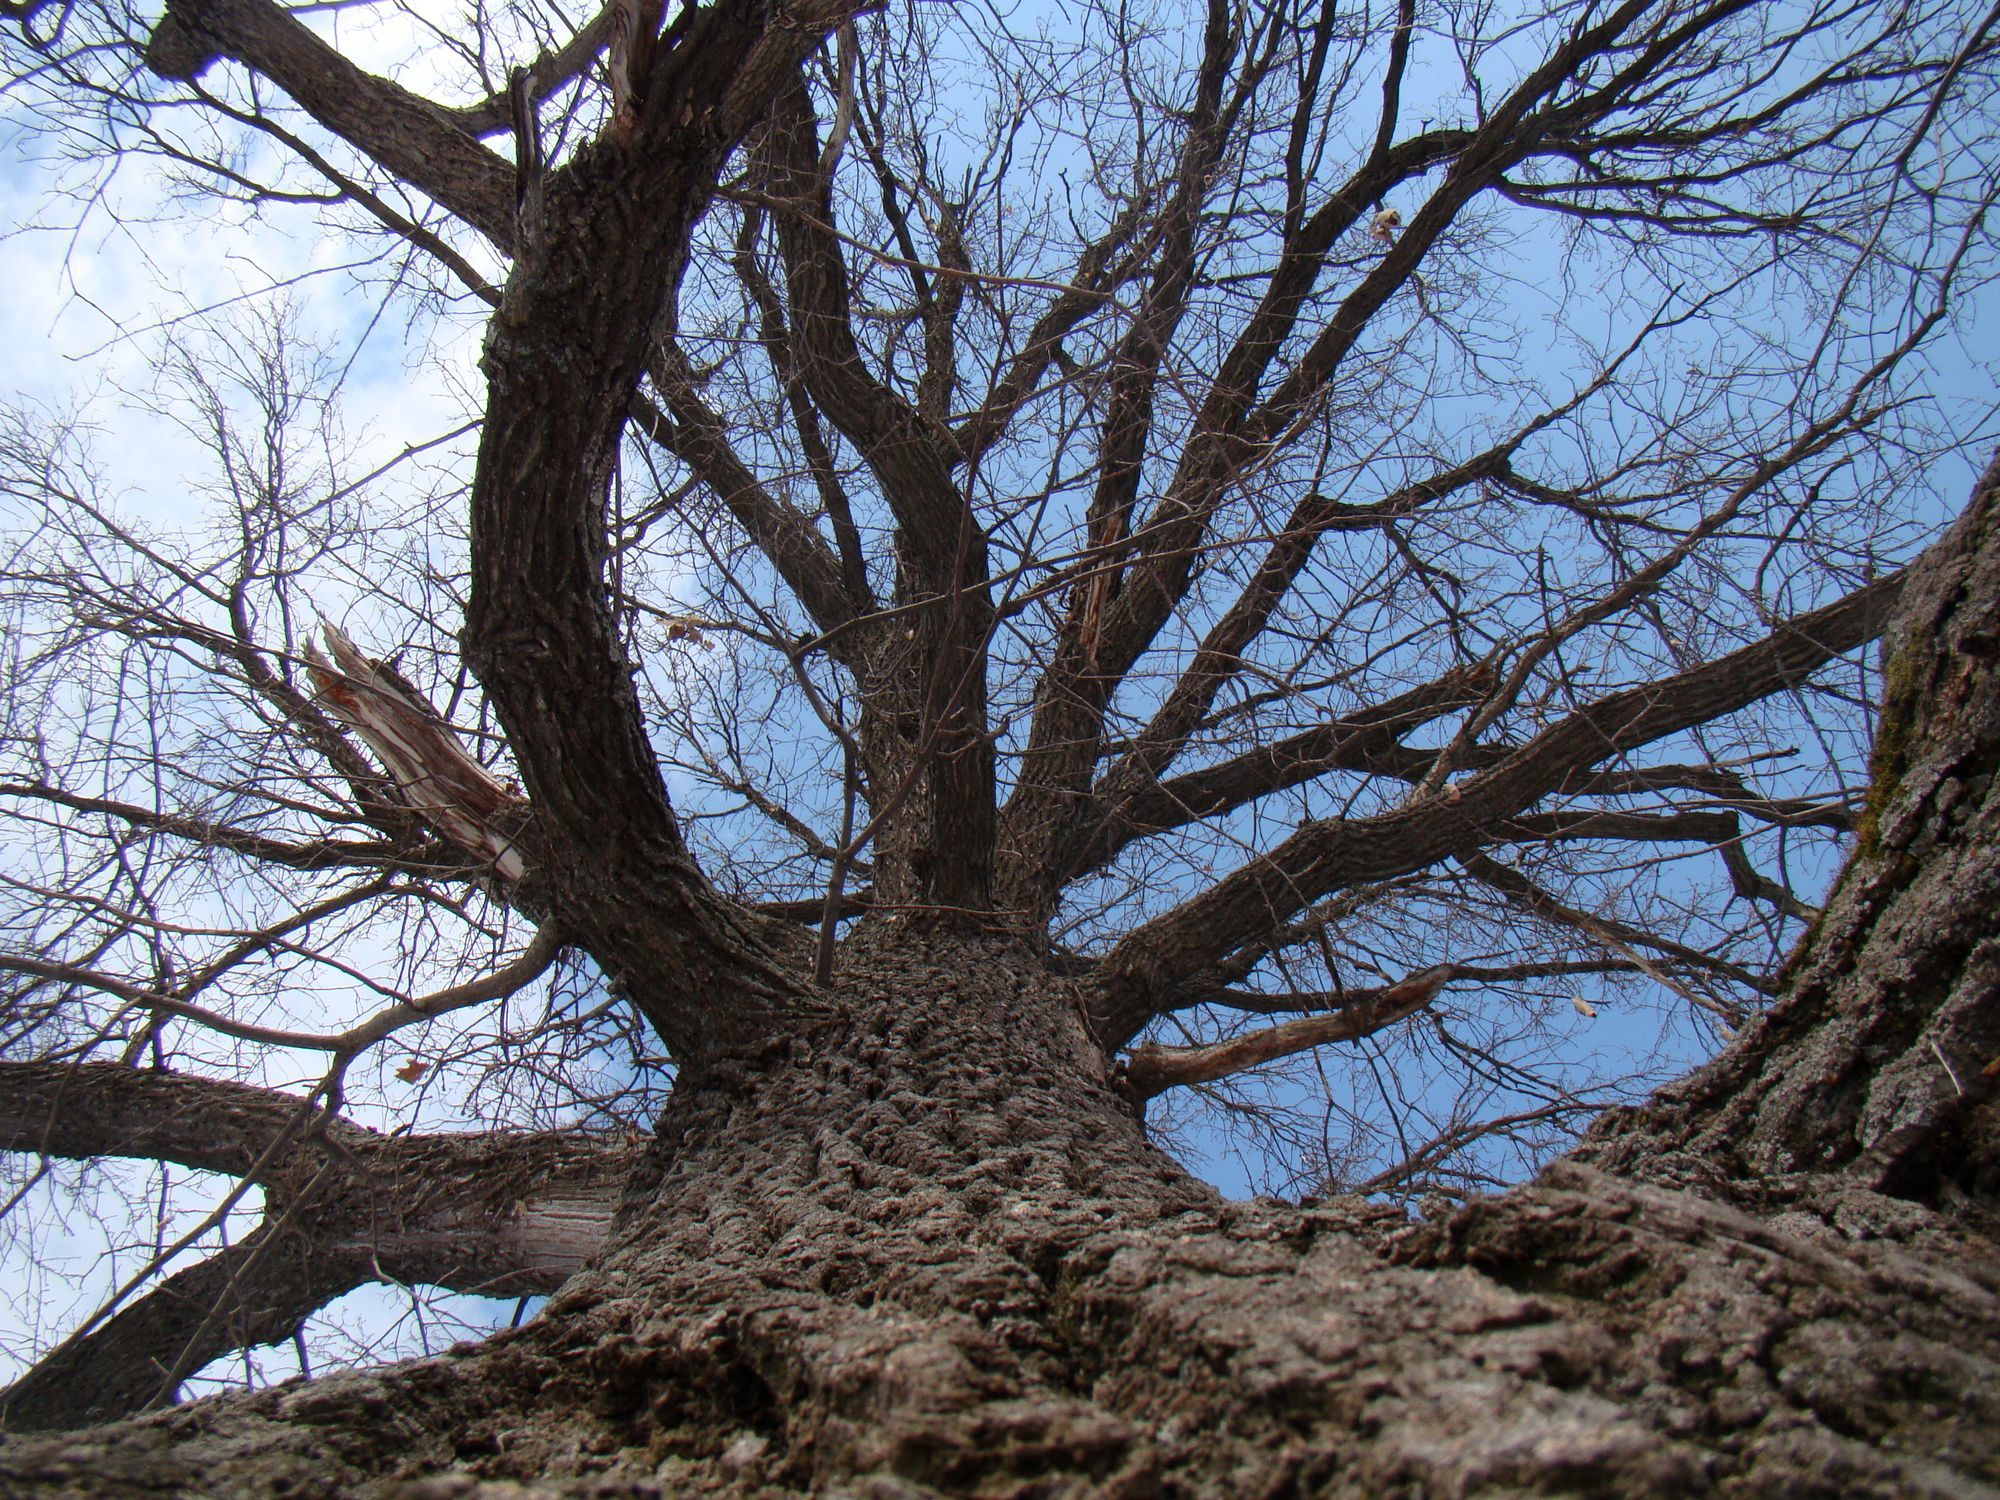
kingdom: Plantae
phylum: Tracheophyta
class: Magnoliopsida
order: Fagales
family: Fagaceae
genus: Quercus
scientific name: Quercus robur
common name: Pedunculate oak
